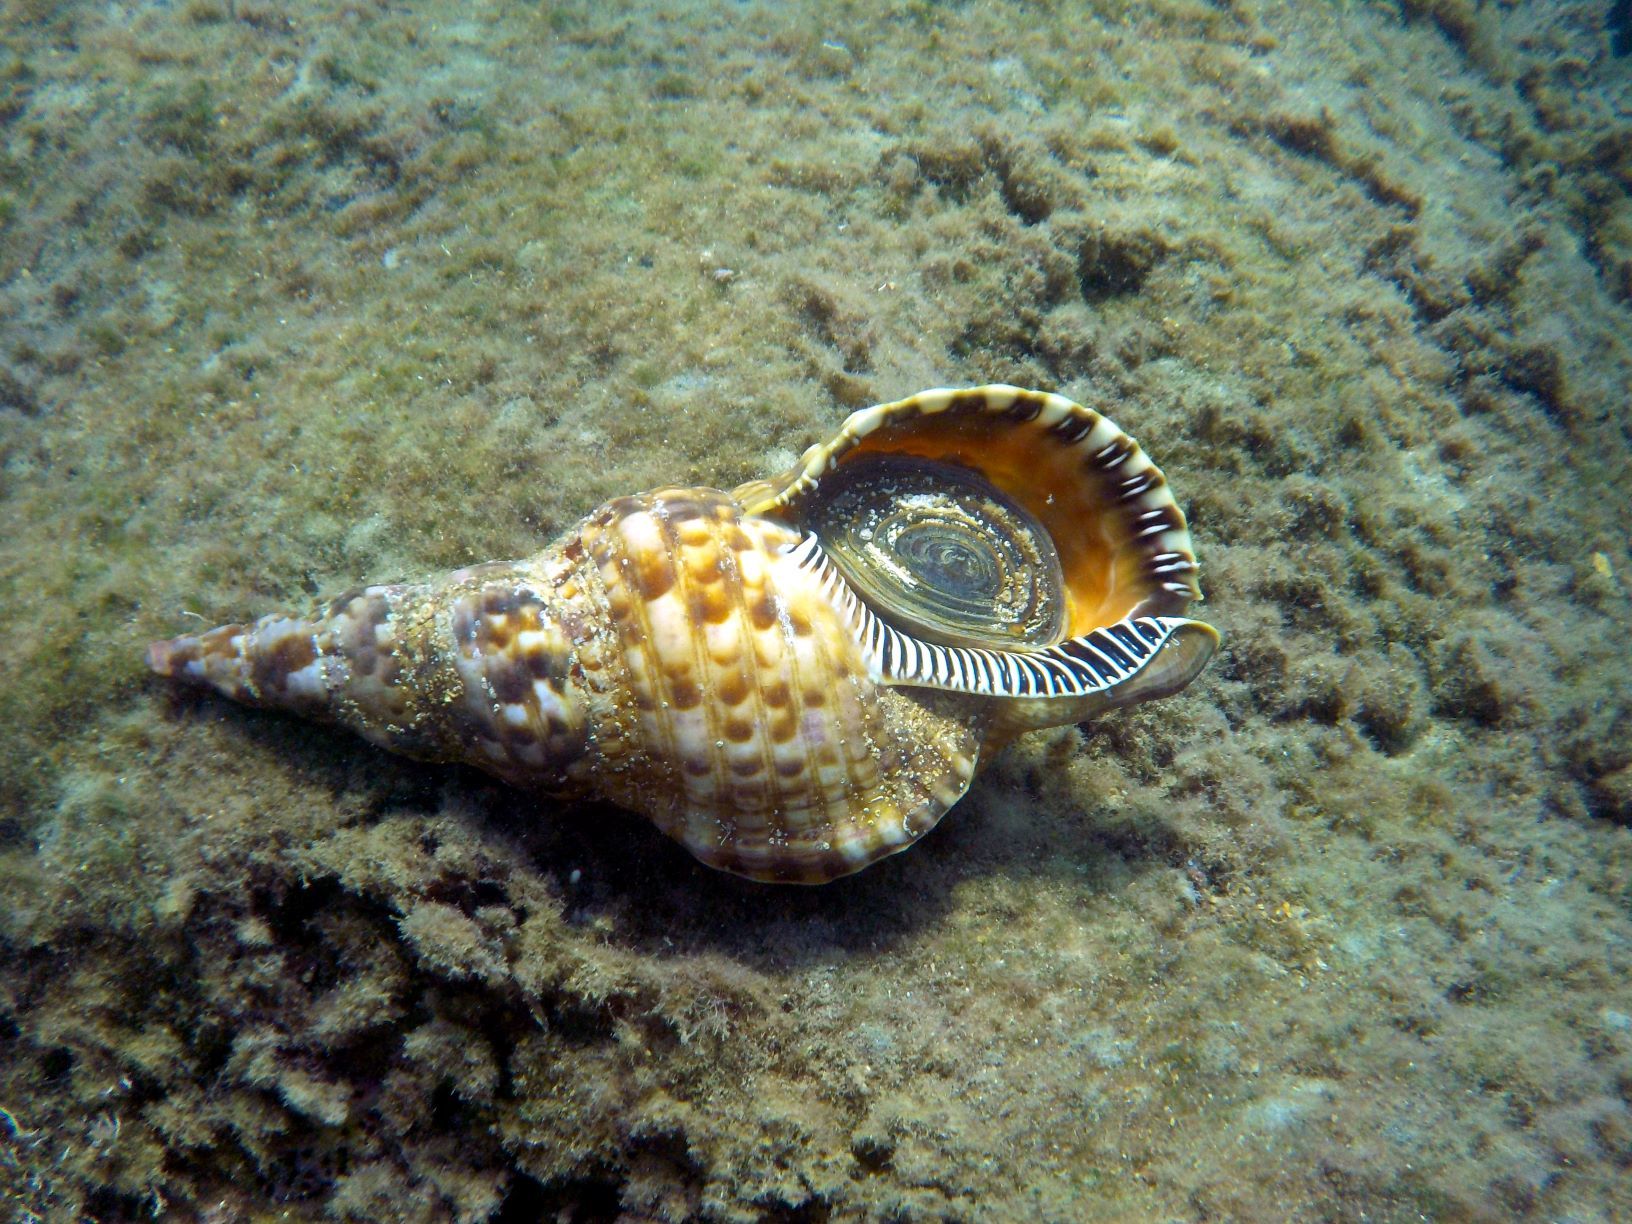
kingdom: Animalia
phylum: Mollusca
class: Gastropoda
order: Littorinimorpha
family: Charoniidae
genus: Charonia
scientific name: Charonia variegata
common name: Atlantic triton
